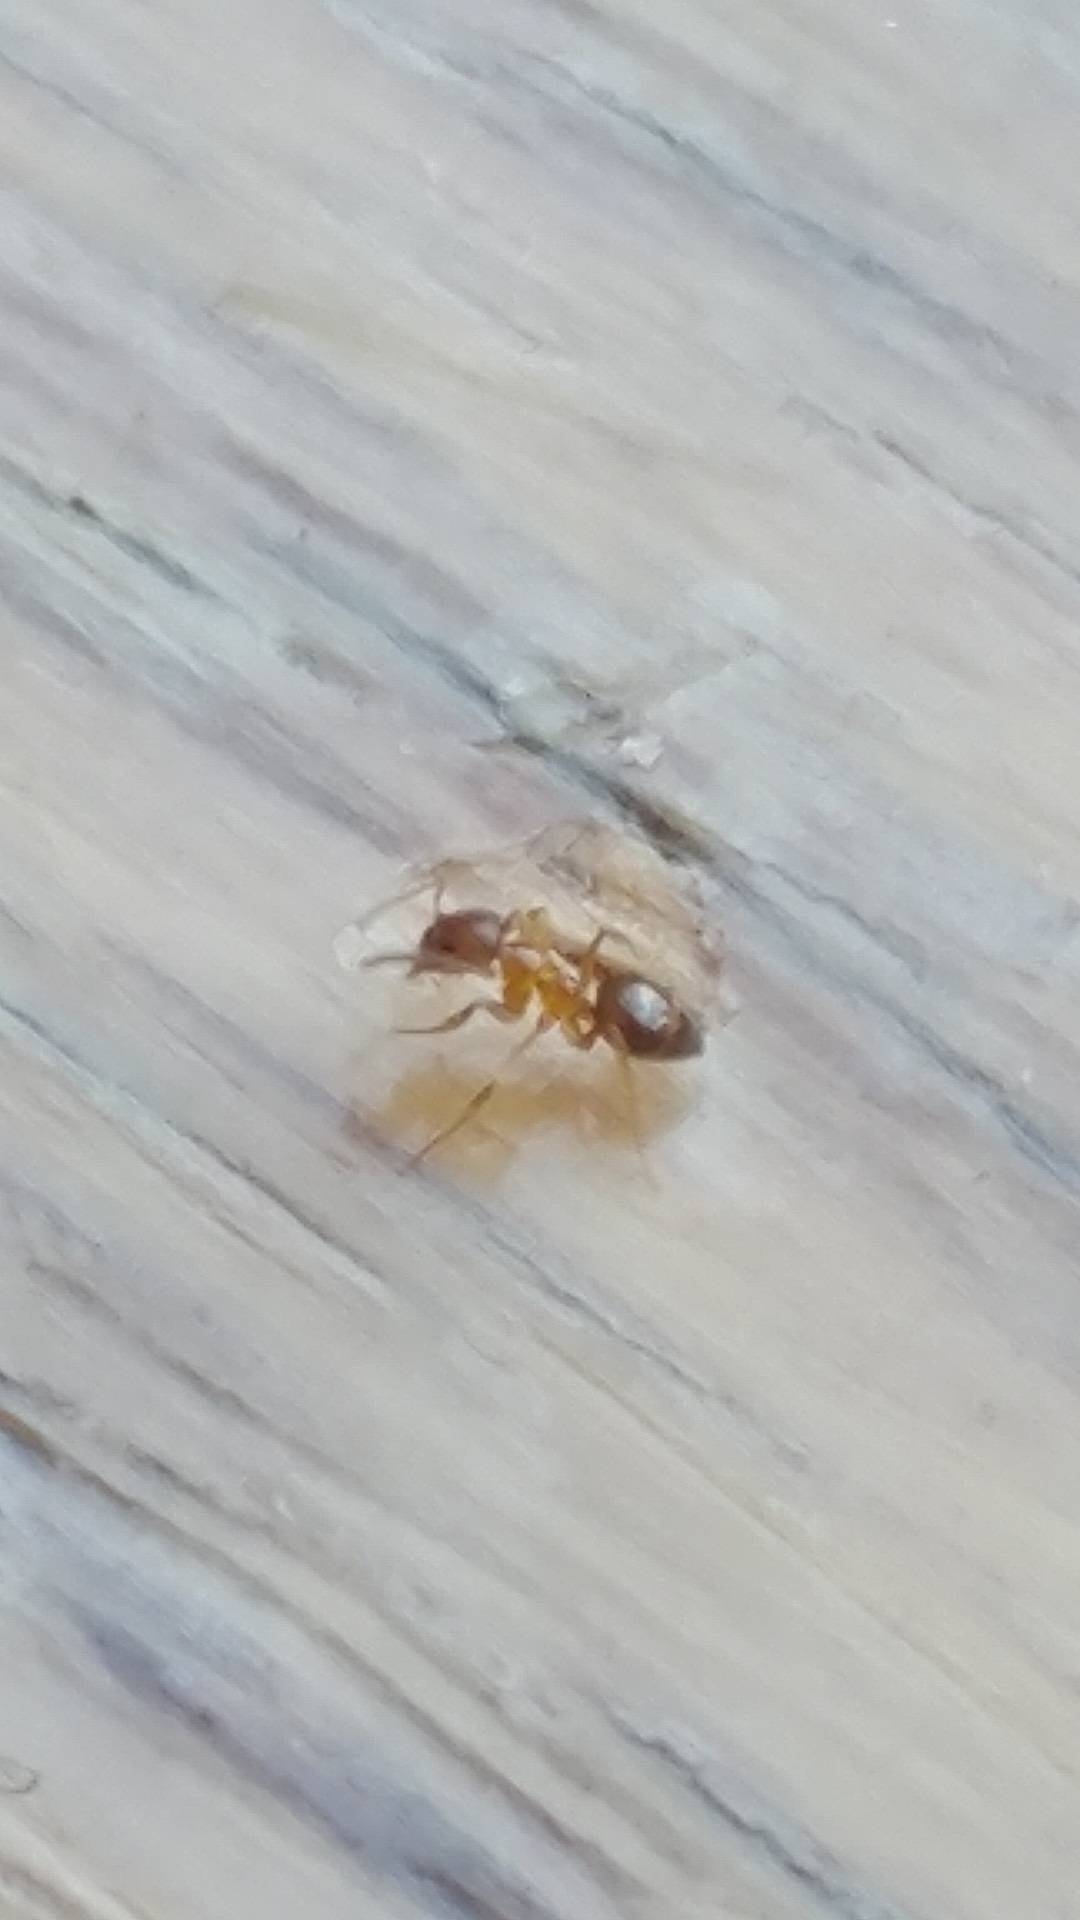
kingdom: Animalia
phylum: Arthropoda
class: Insecta
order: Hymenoptera
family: Formicidae
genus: Paratrechina
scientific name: Paratrechina flavipes
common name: Eastern asian formicine ant
